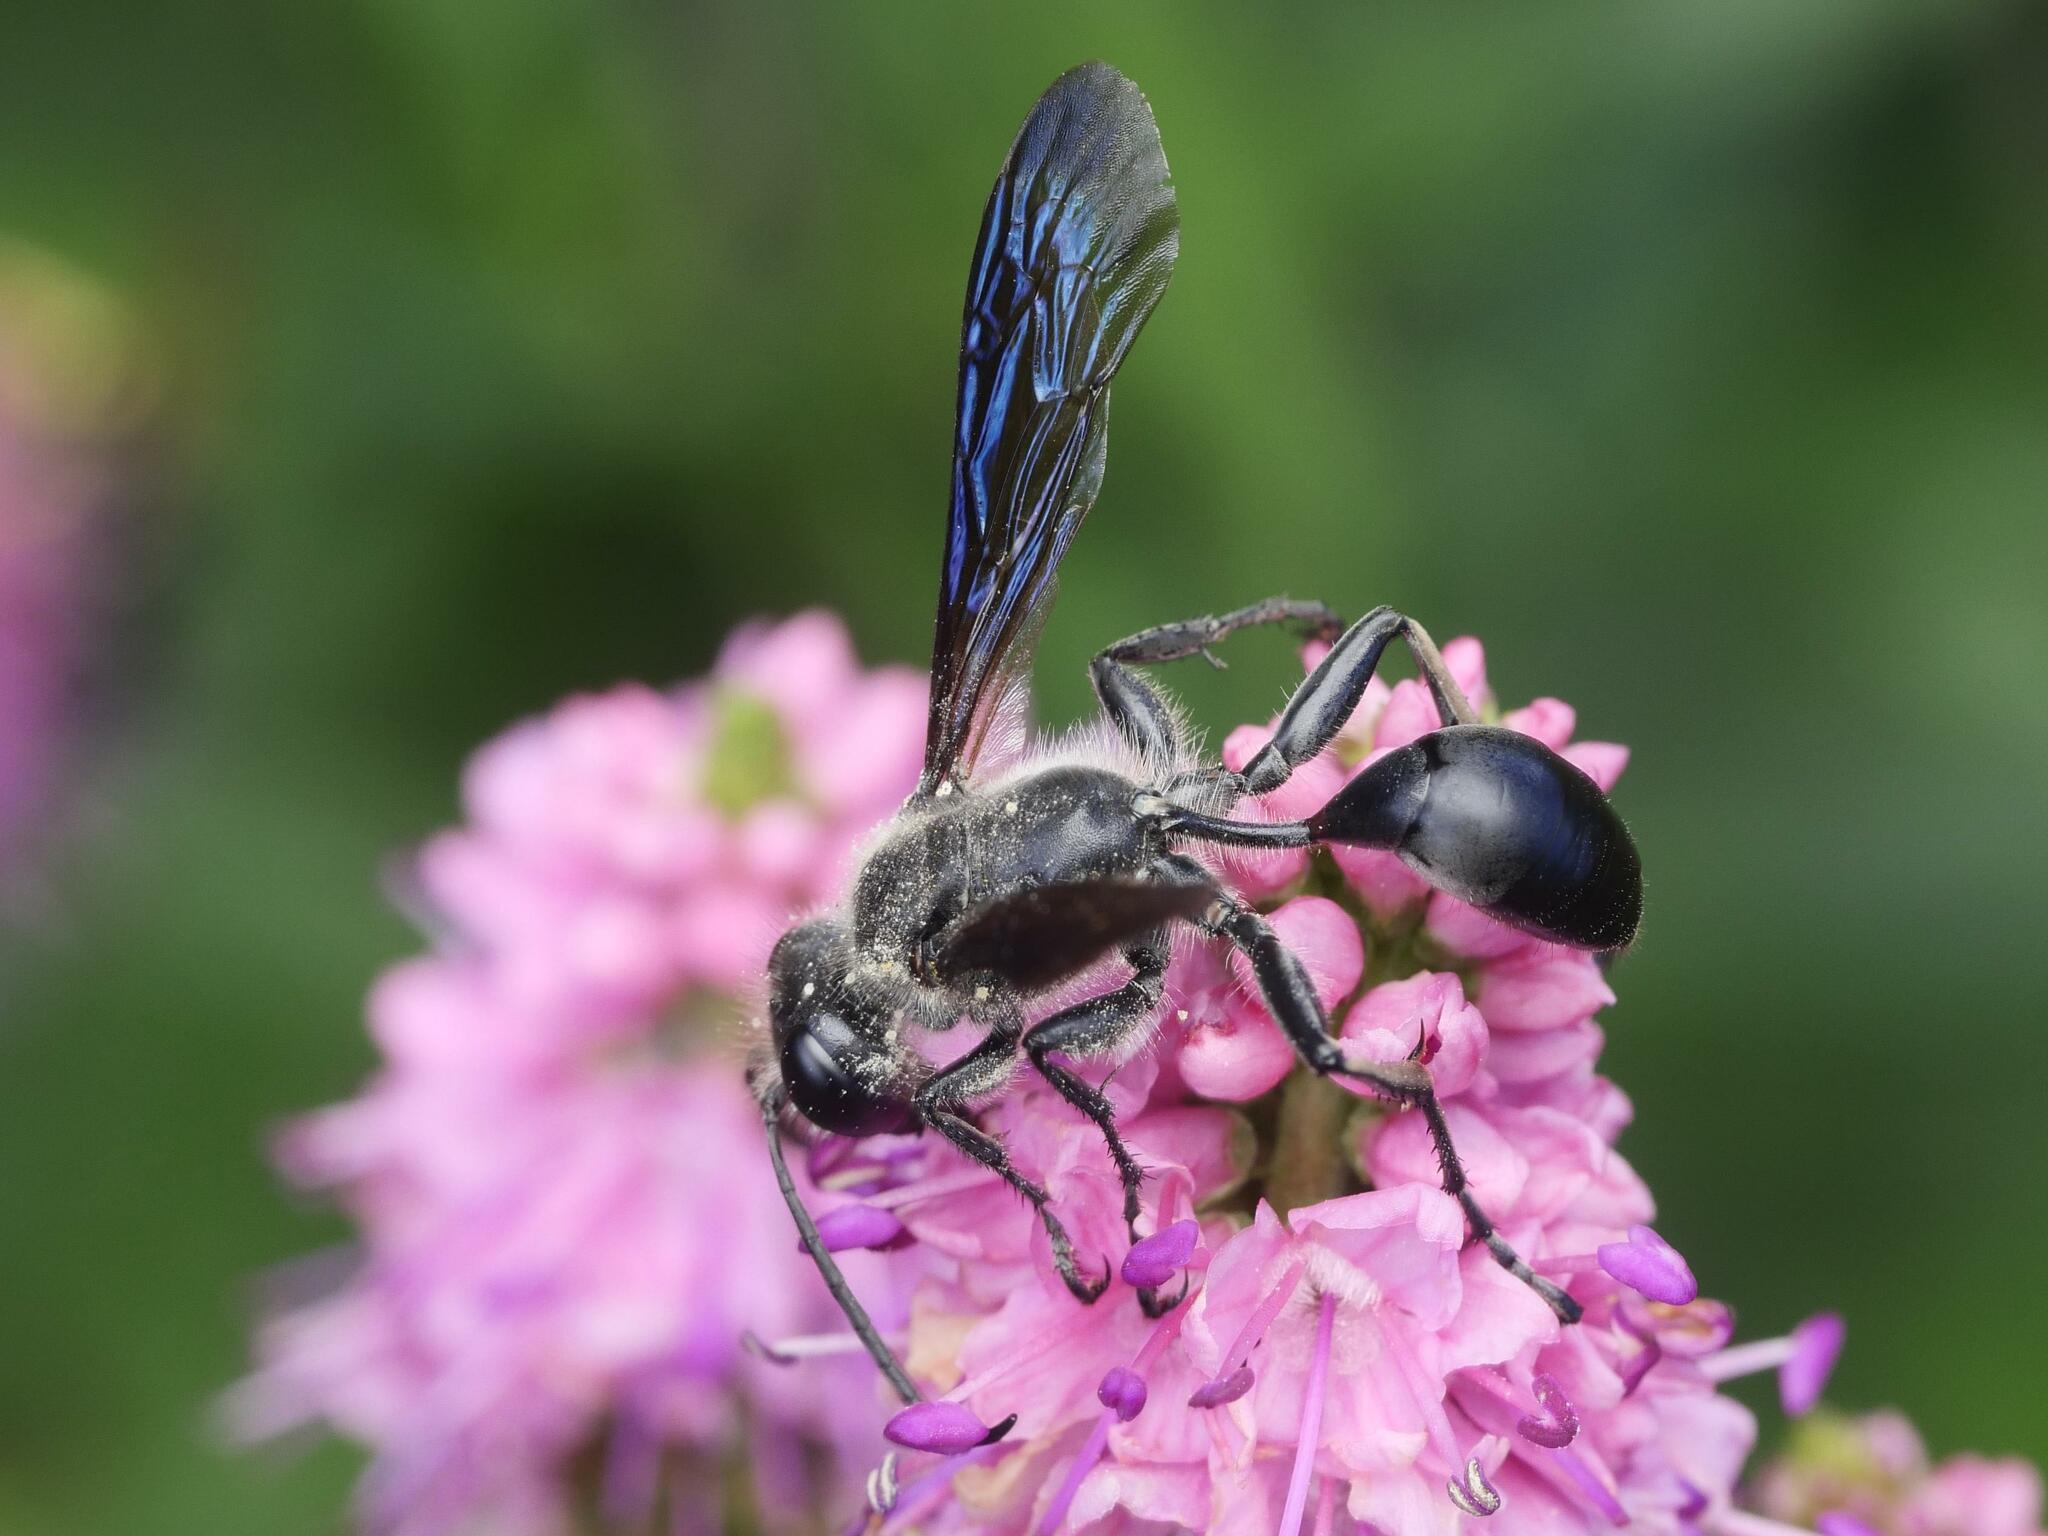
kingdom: Animalia
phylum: Arthropoda
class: Insecta
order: Hymenoptera
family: Sphecidae
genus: Isodontia
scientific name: Isodontia mexicana
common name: Mud dauber
